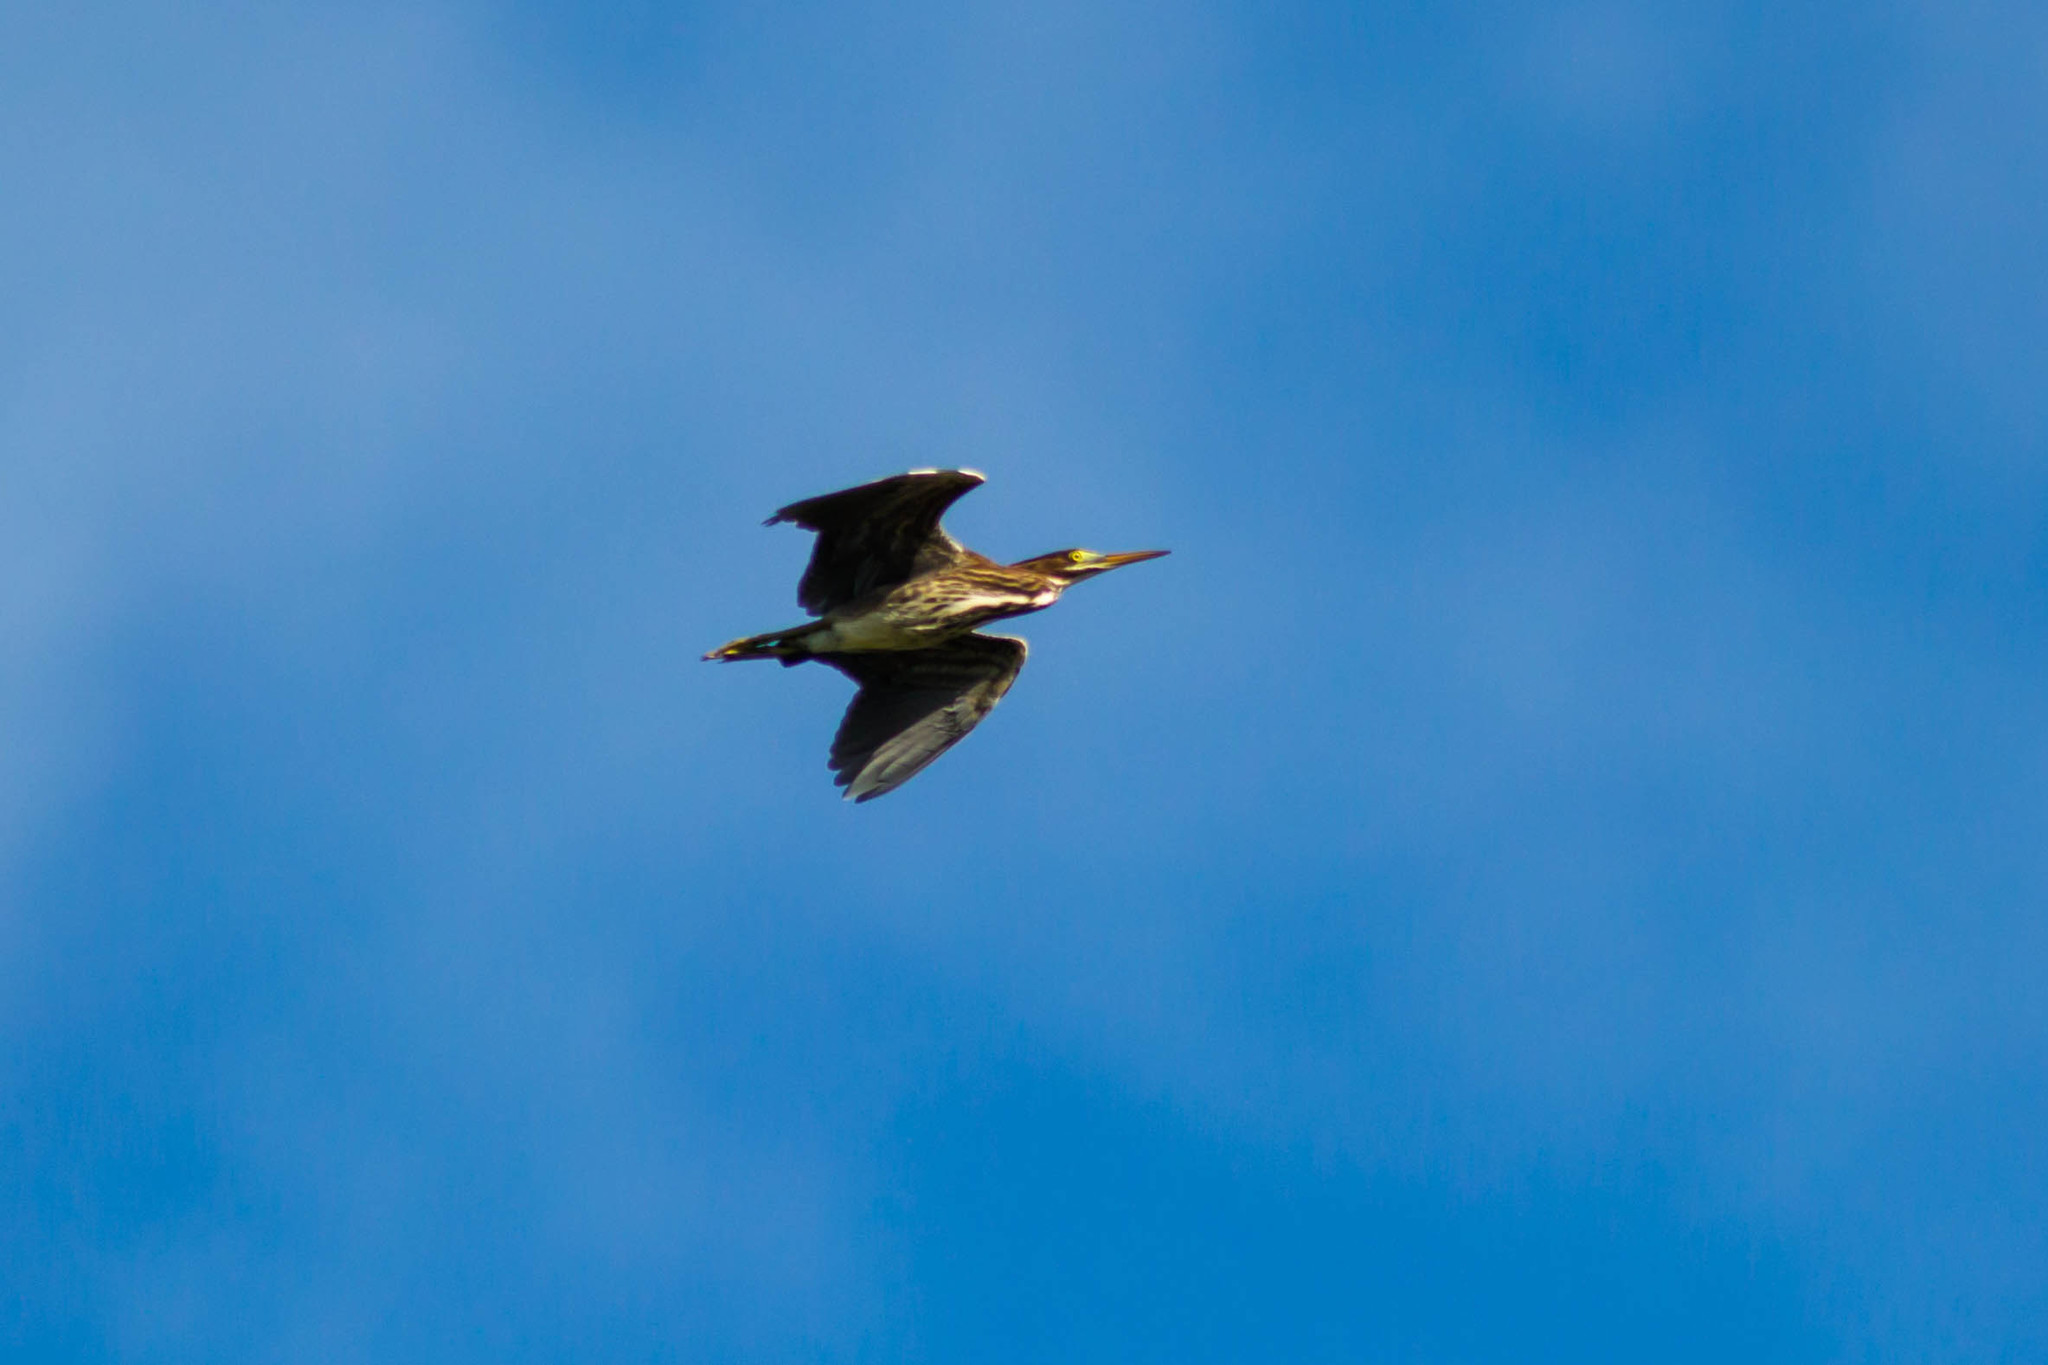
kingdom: Animalia
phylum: Chordata
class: Aves
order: Pelecaniformes
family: Ardeidae
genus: Butorides
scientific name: Butorides virescens
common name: Green heron
